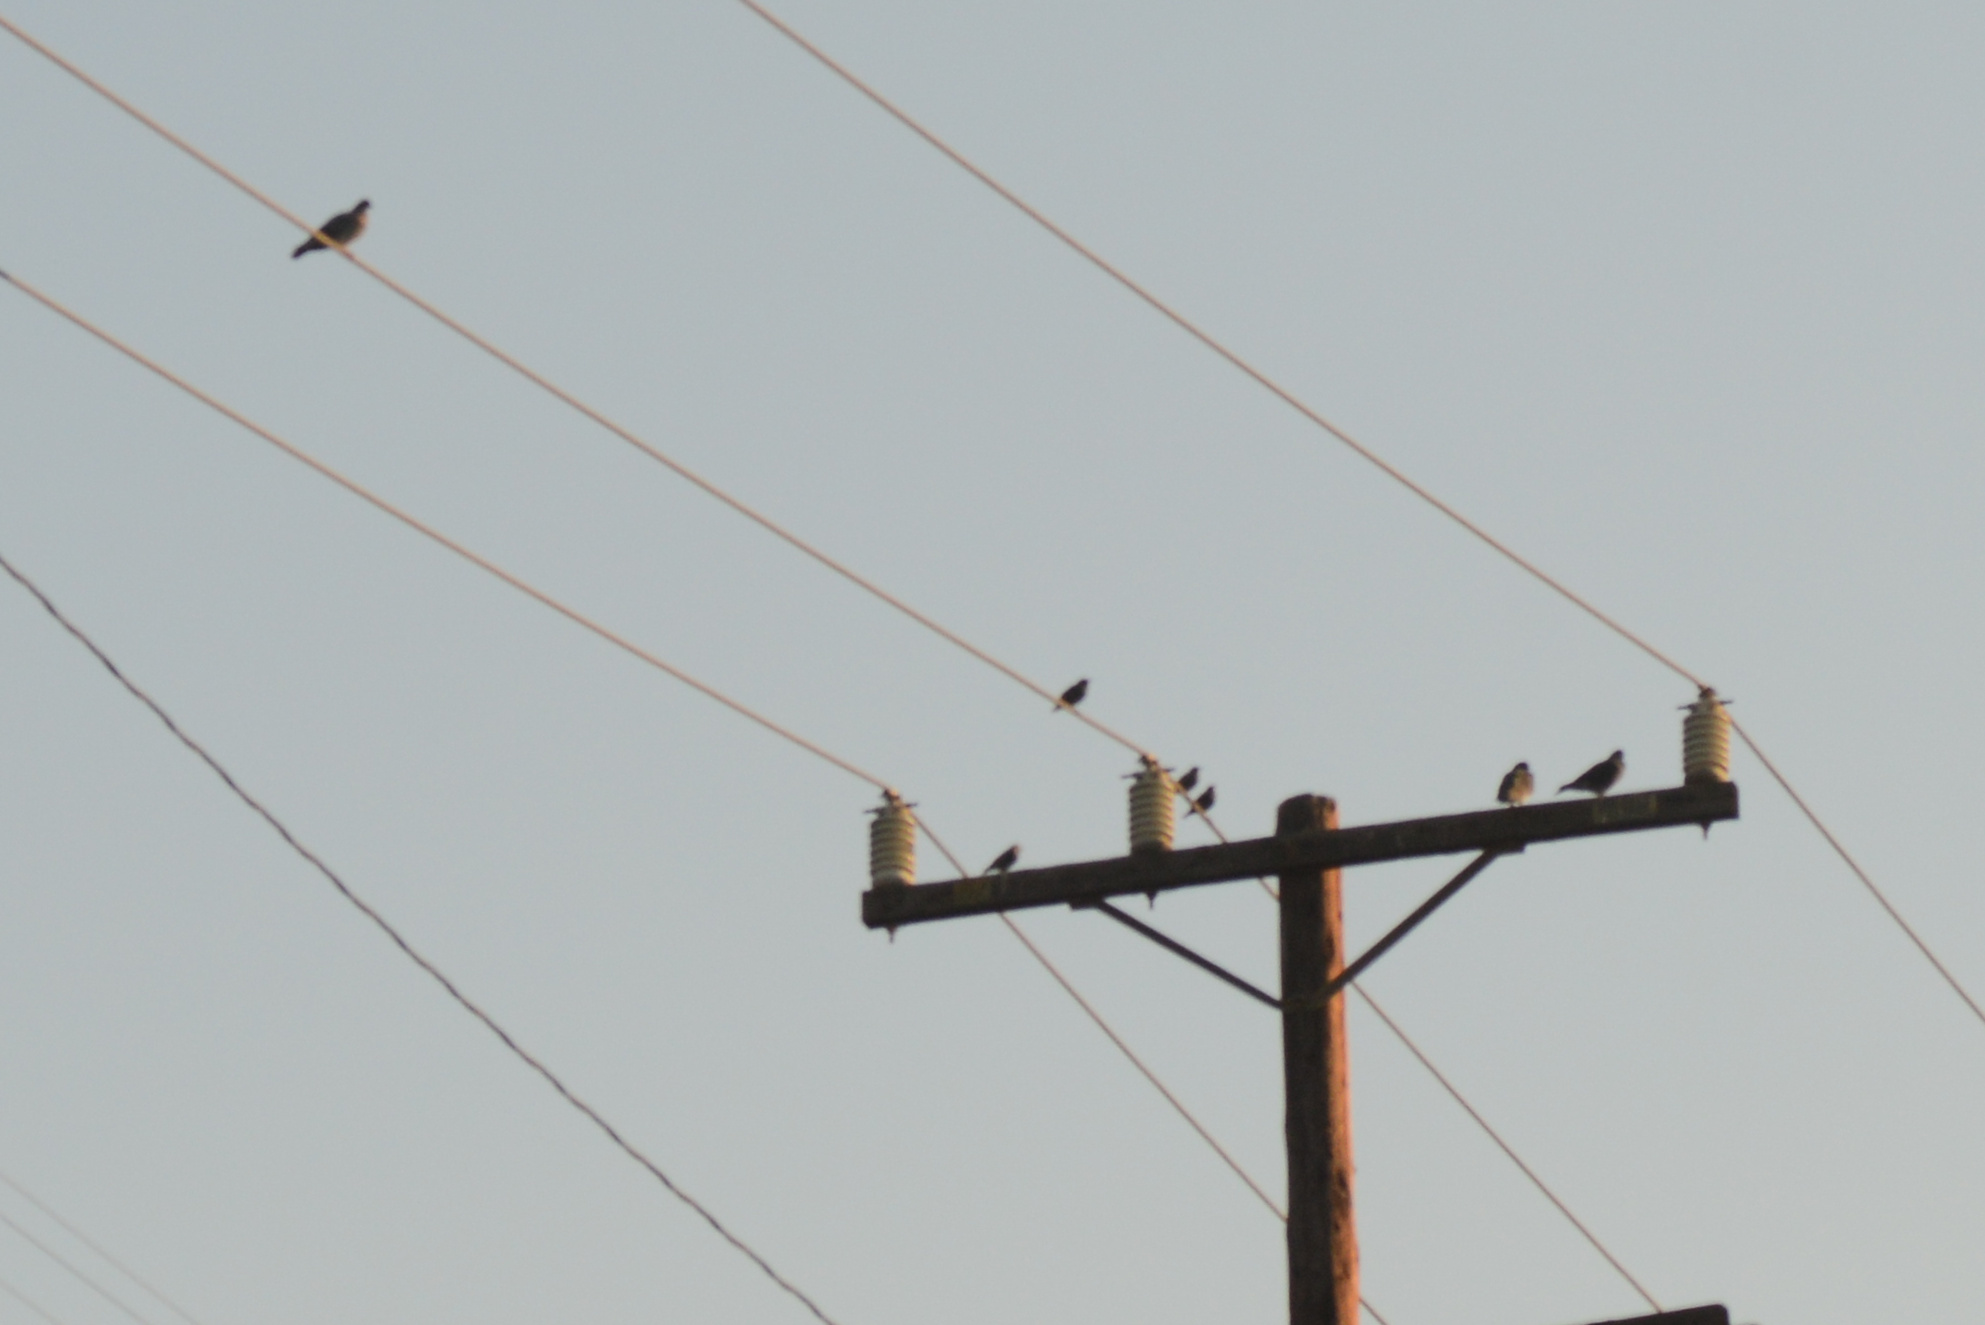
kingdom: Animalia
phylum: Chordata
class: Aves
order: Passeriformes
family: Sturnidae
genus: Sturnus
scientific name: Sturnus vulgaris
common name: Common starling
